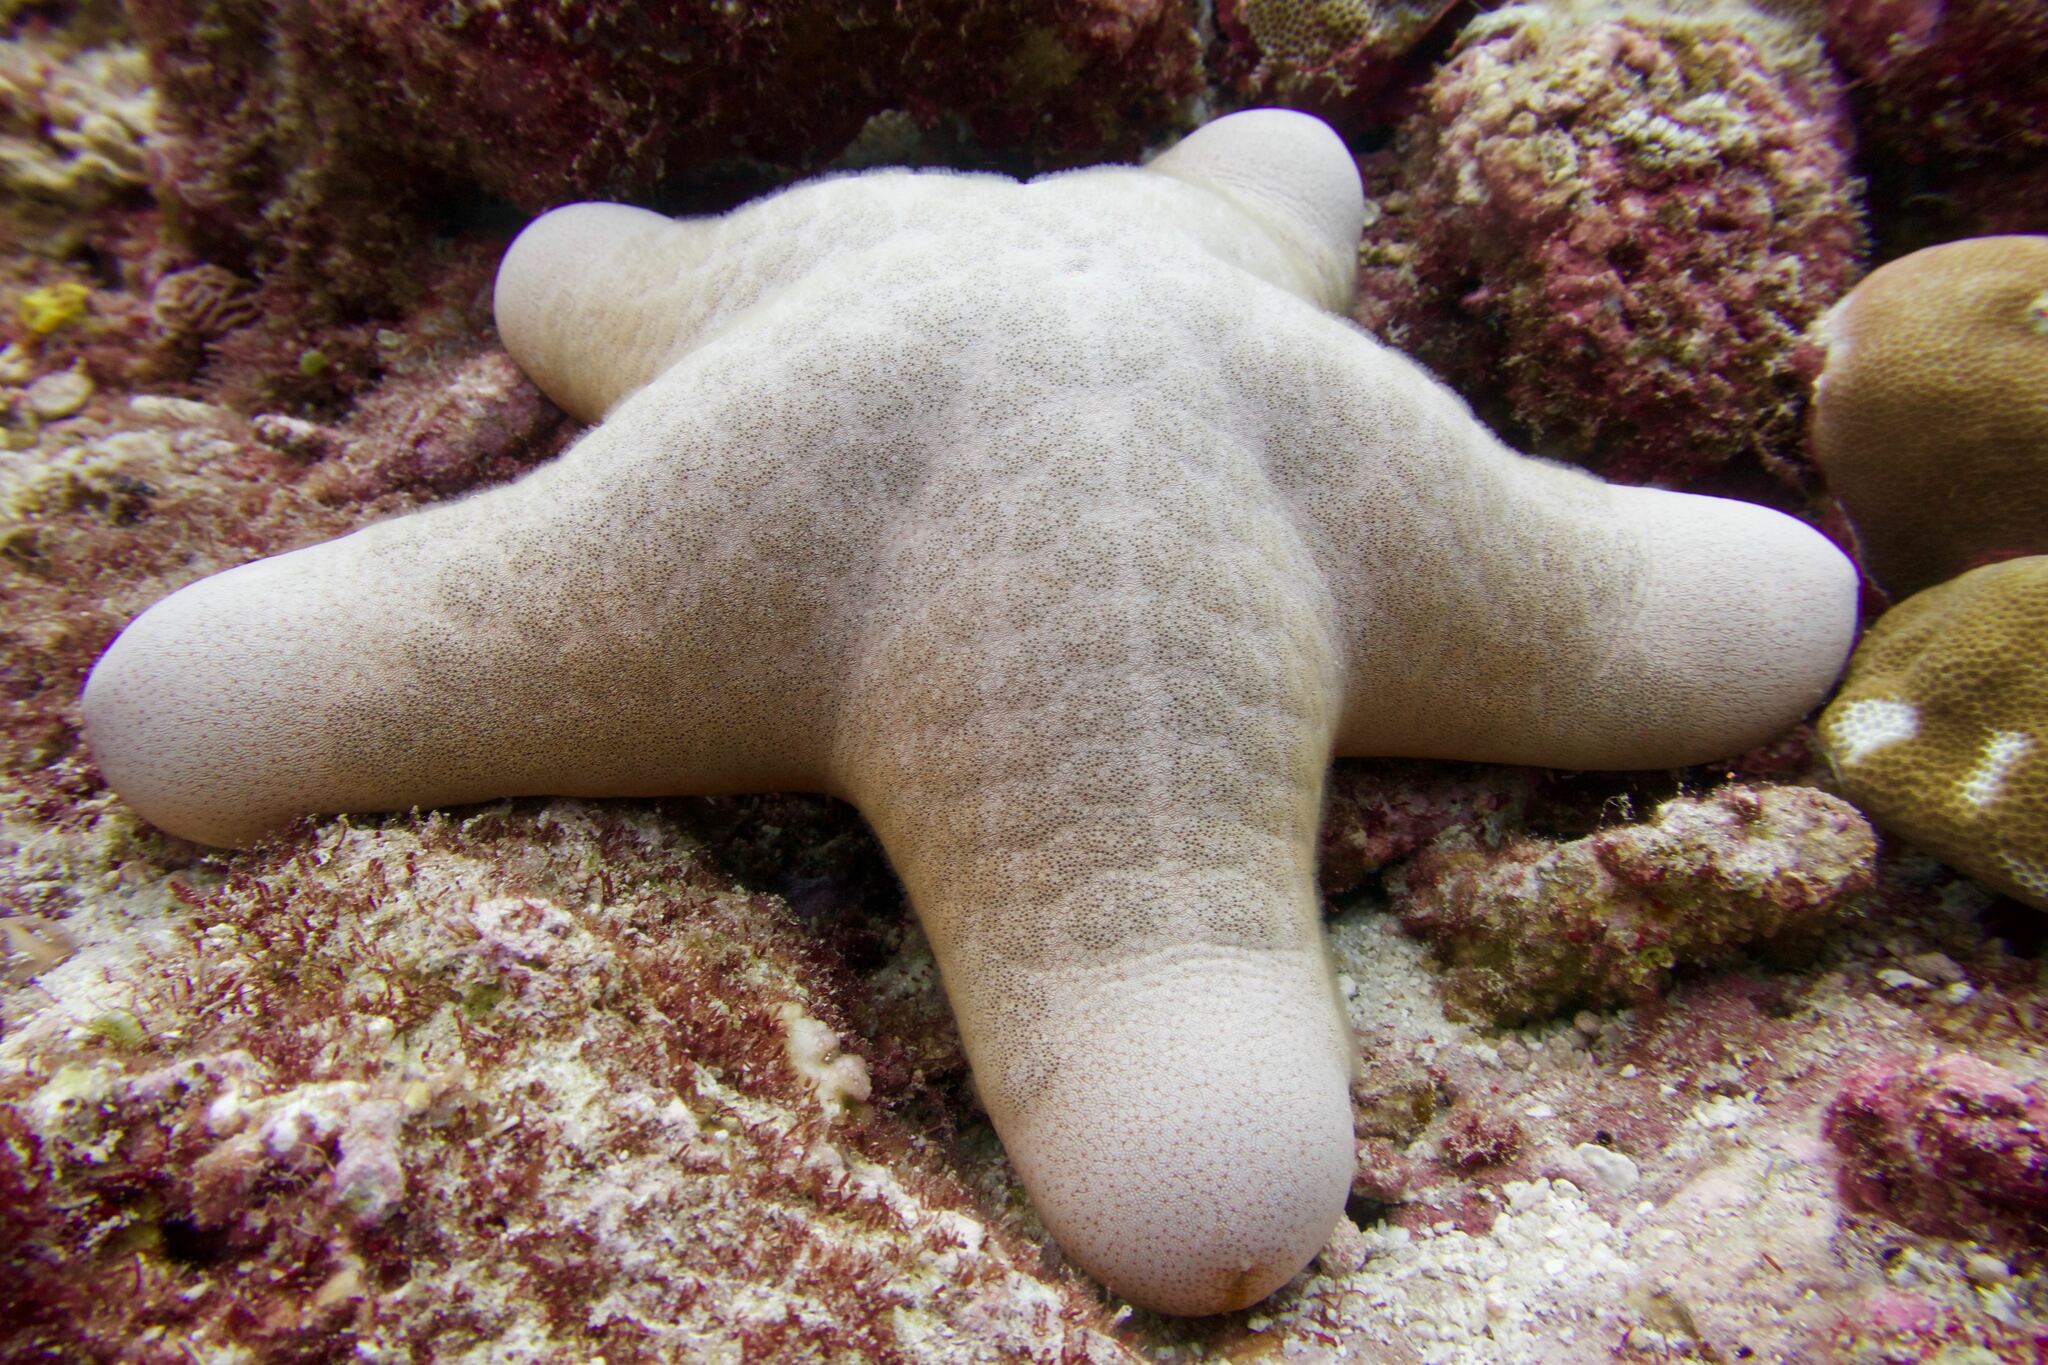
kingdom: Animalia
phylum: Echinodermata
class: Asteroidea
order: Valvatida
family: Oreasteridae
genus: Choriaster
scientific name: Choriaster granulatus
